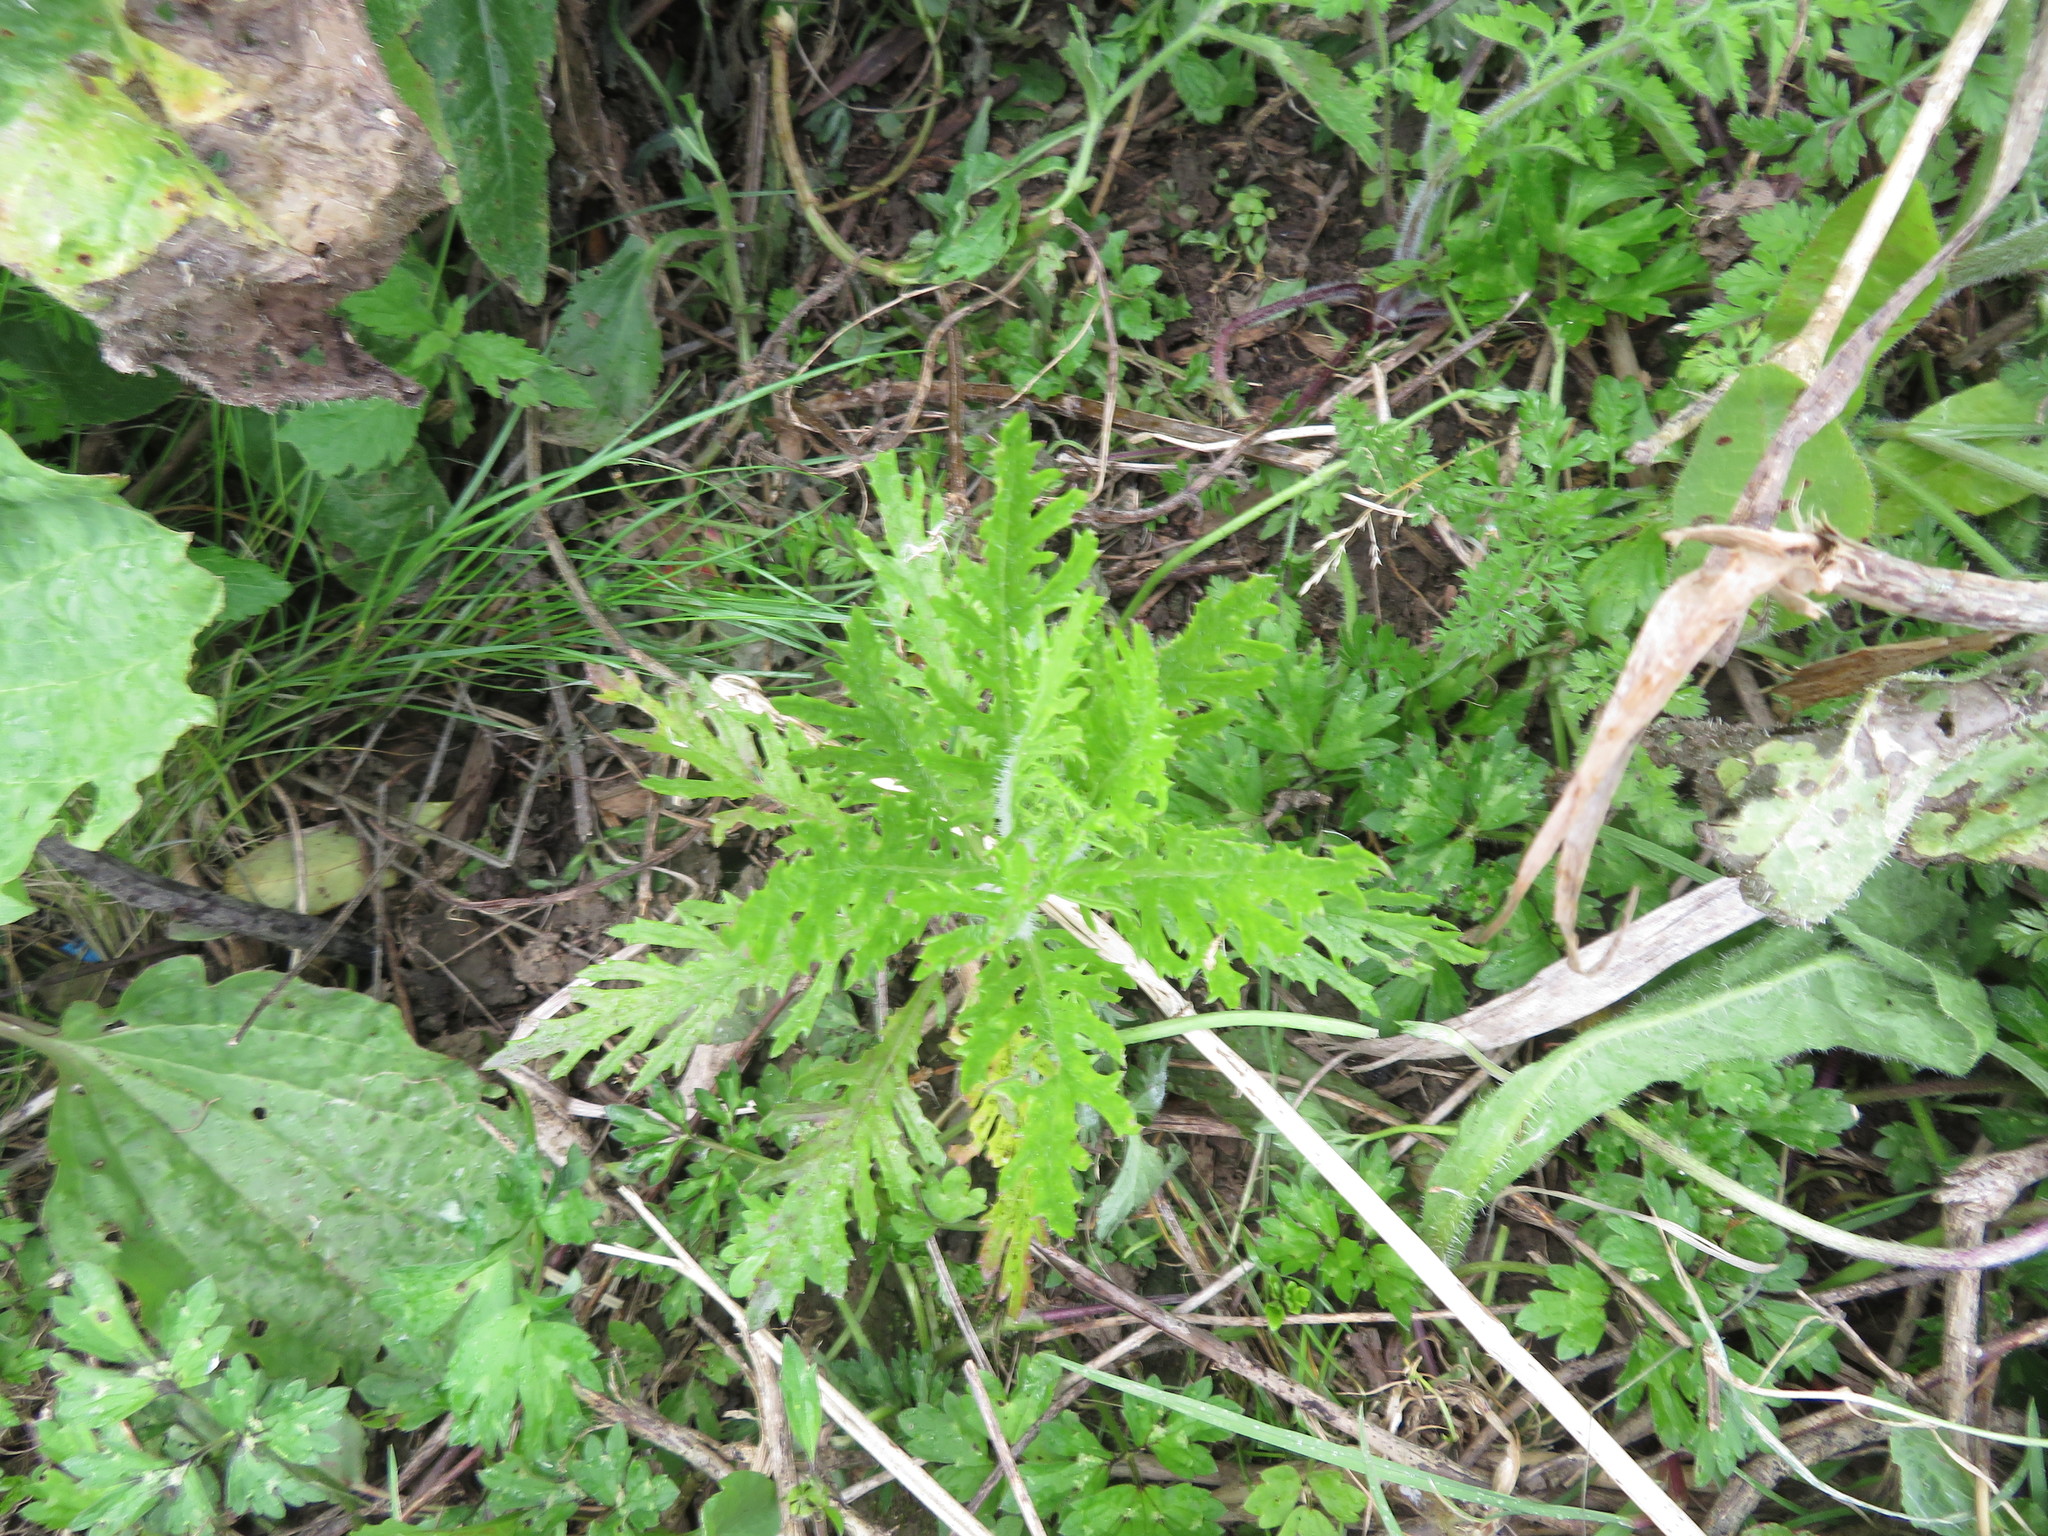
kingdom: Plantae
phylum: Tracheophyta
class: Magnoliopsida
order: Asterales
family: Asteraceae
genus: Senecio
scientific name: Senecio esleri
